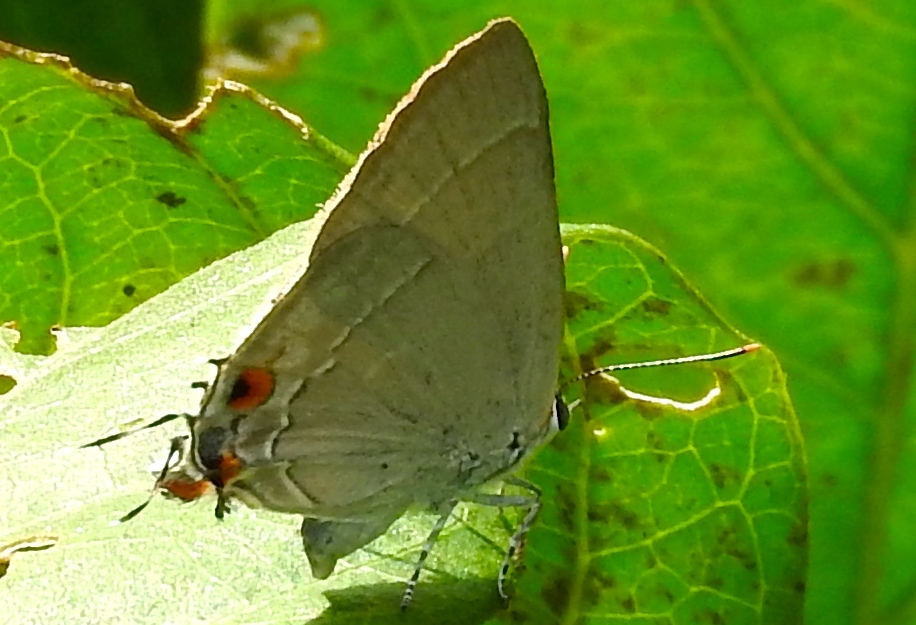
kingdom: Animalia
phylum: Arthropoda
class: Insecta
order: Lepidoptera
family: Lycaenidae
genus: Thecla
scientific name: Thecla marius
